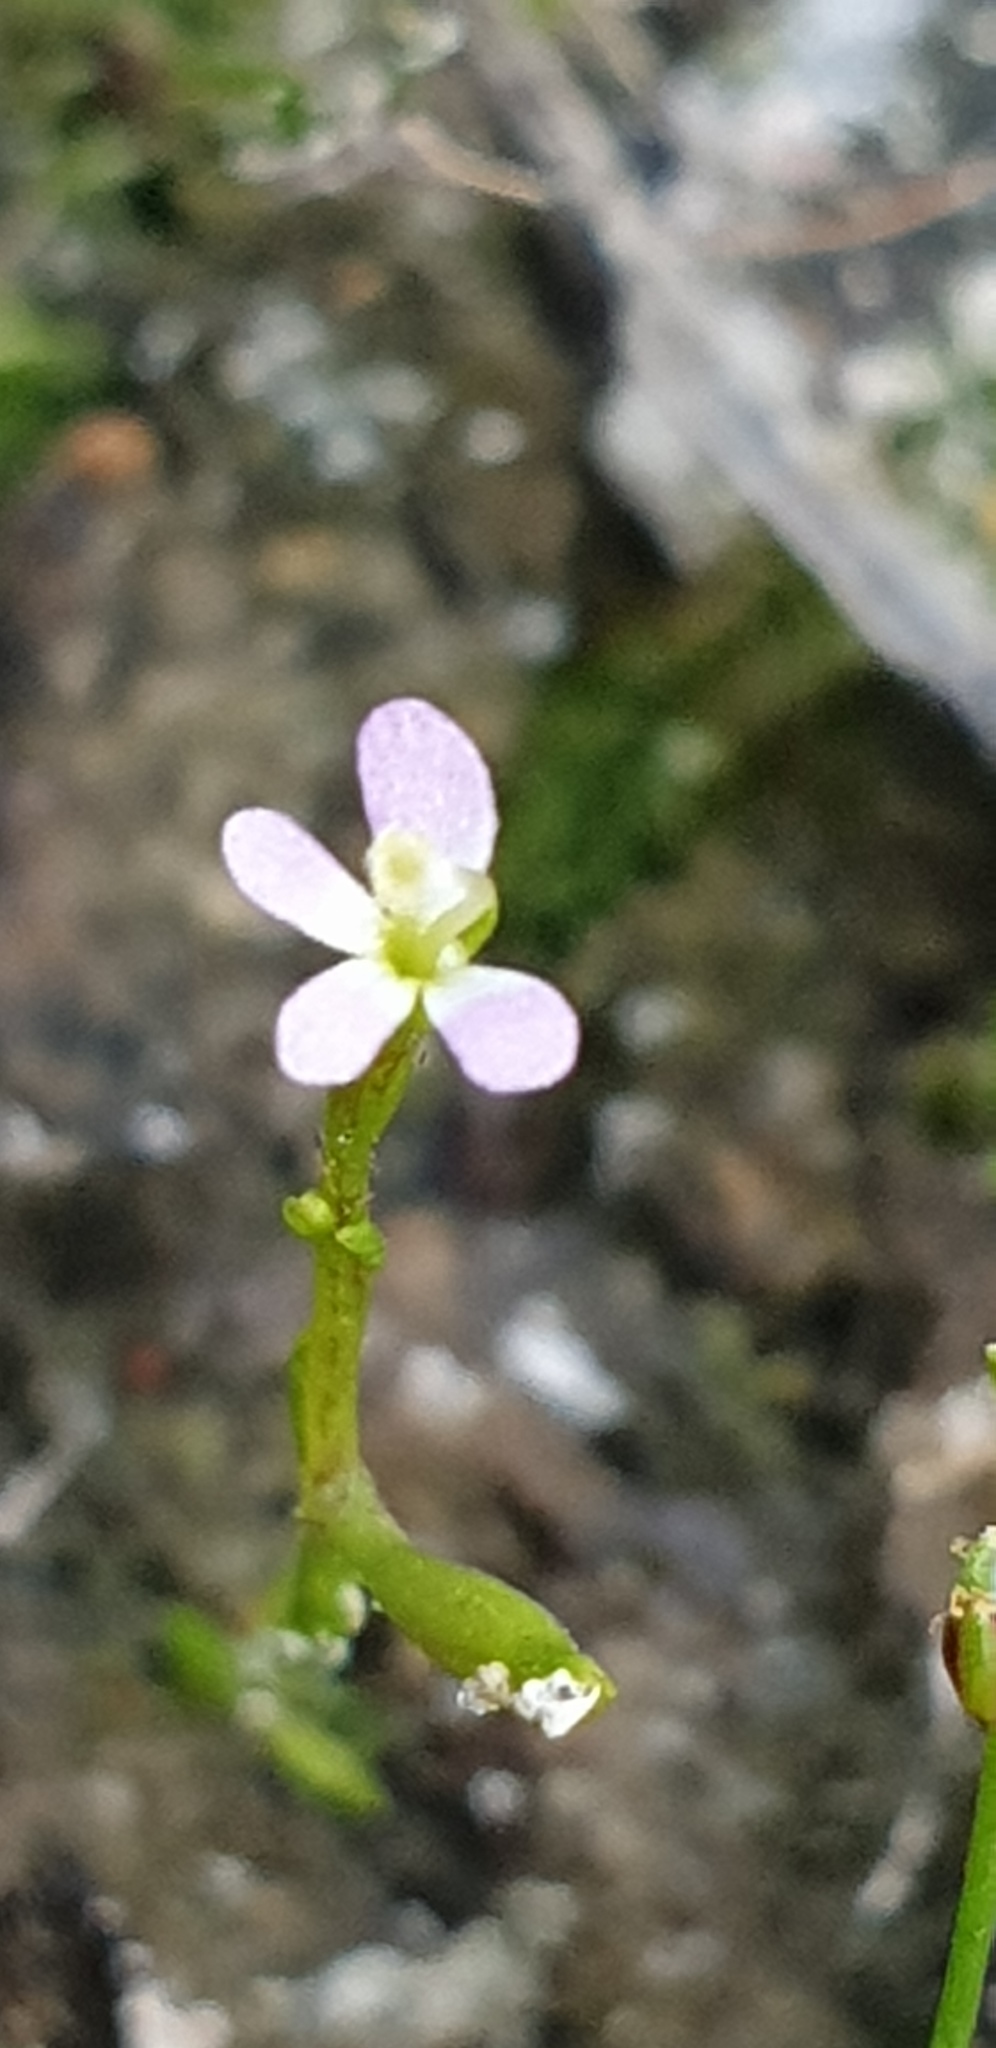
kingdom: Plantae
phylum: Tracheophyta
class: Magnoliopsida
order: Asterales
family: Stylidiaceae
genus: Stylidium
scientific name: Stylidium despectum
